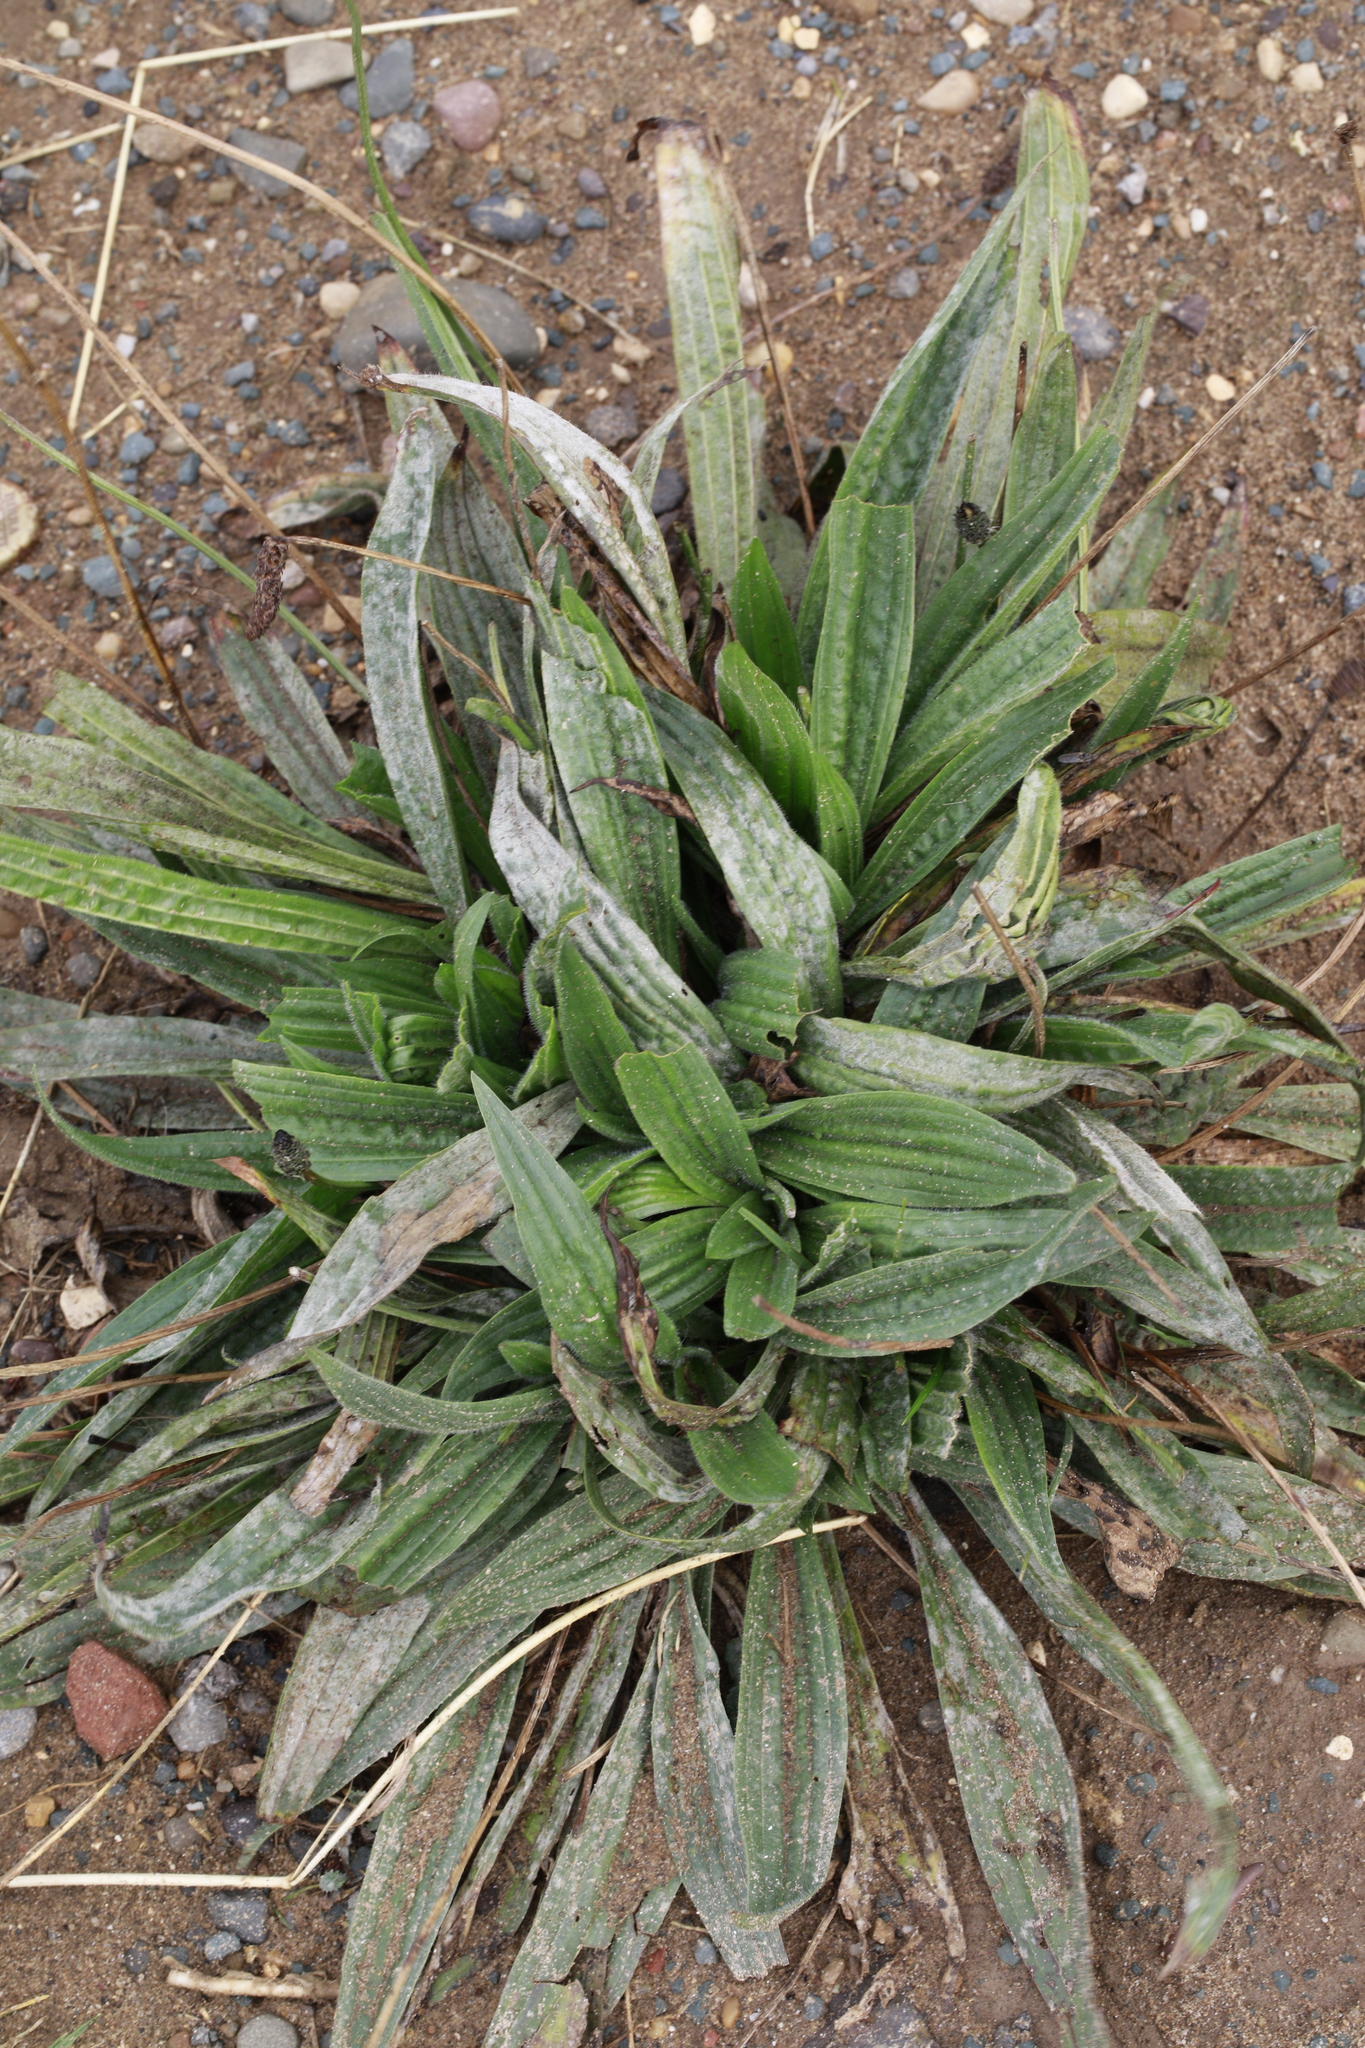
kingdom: Plantae
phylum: Tracheophyta
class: Magnoliopsida
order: Lamiales
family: Plantaginaceae
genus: Plantago
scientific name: Plantago lanceolata
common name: Ribwort plantain
